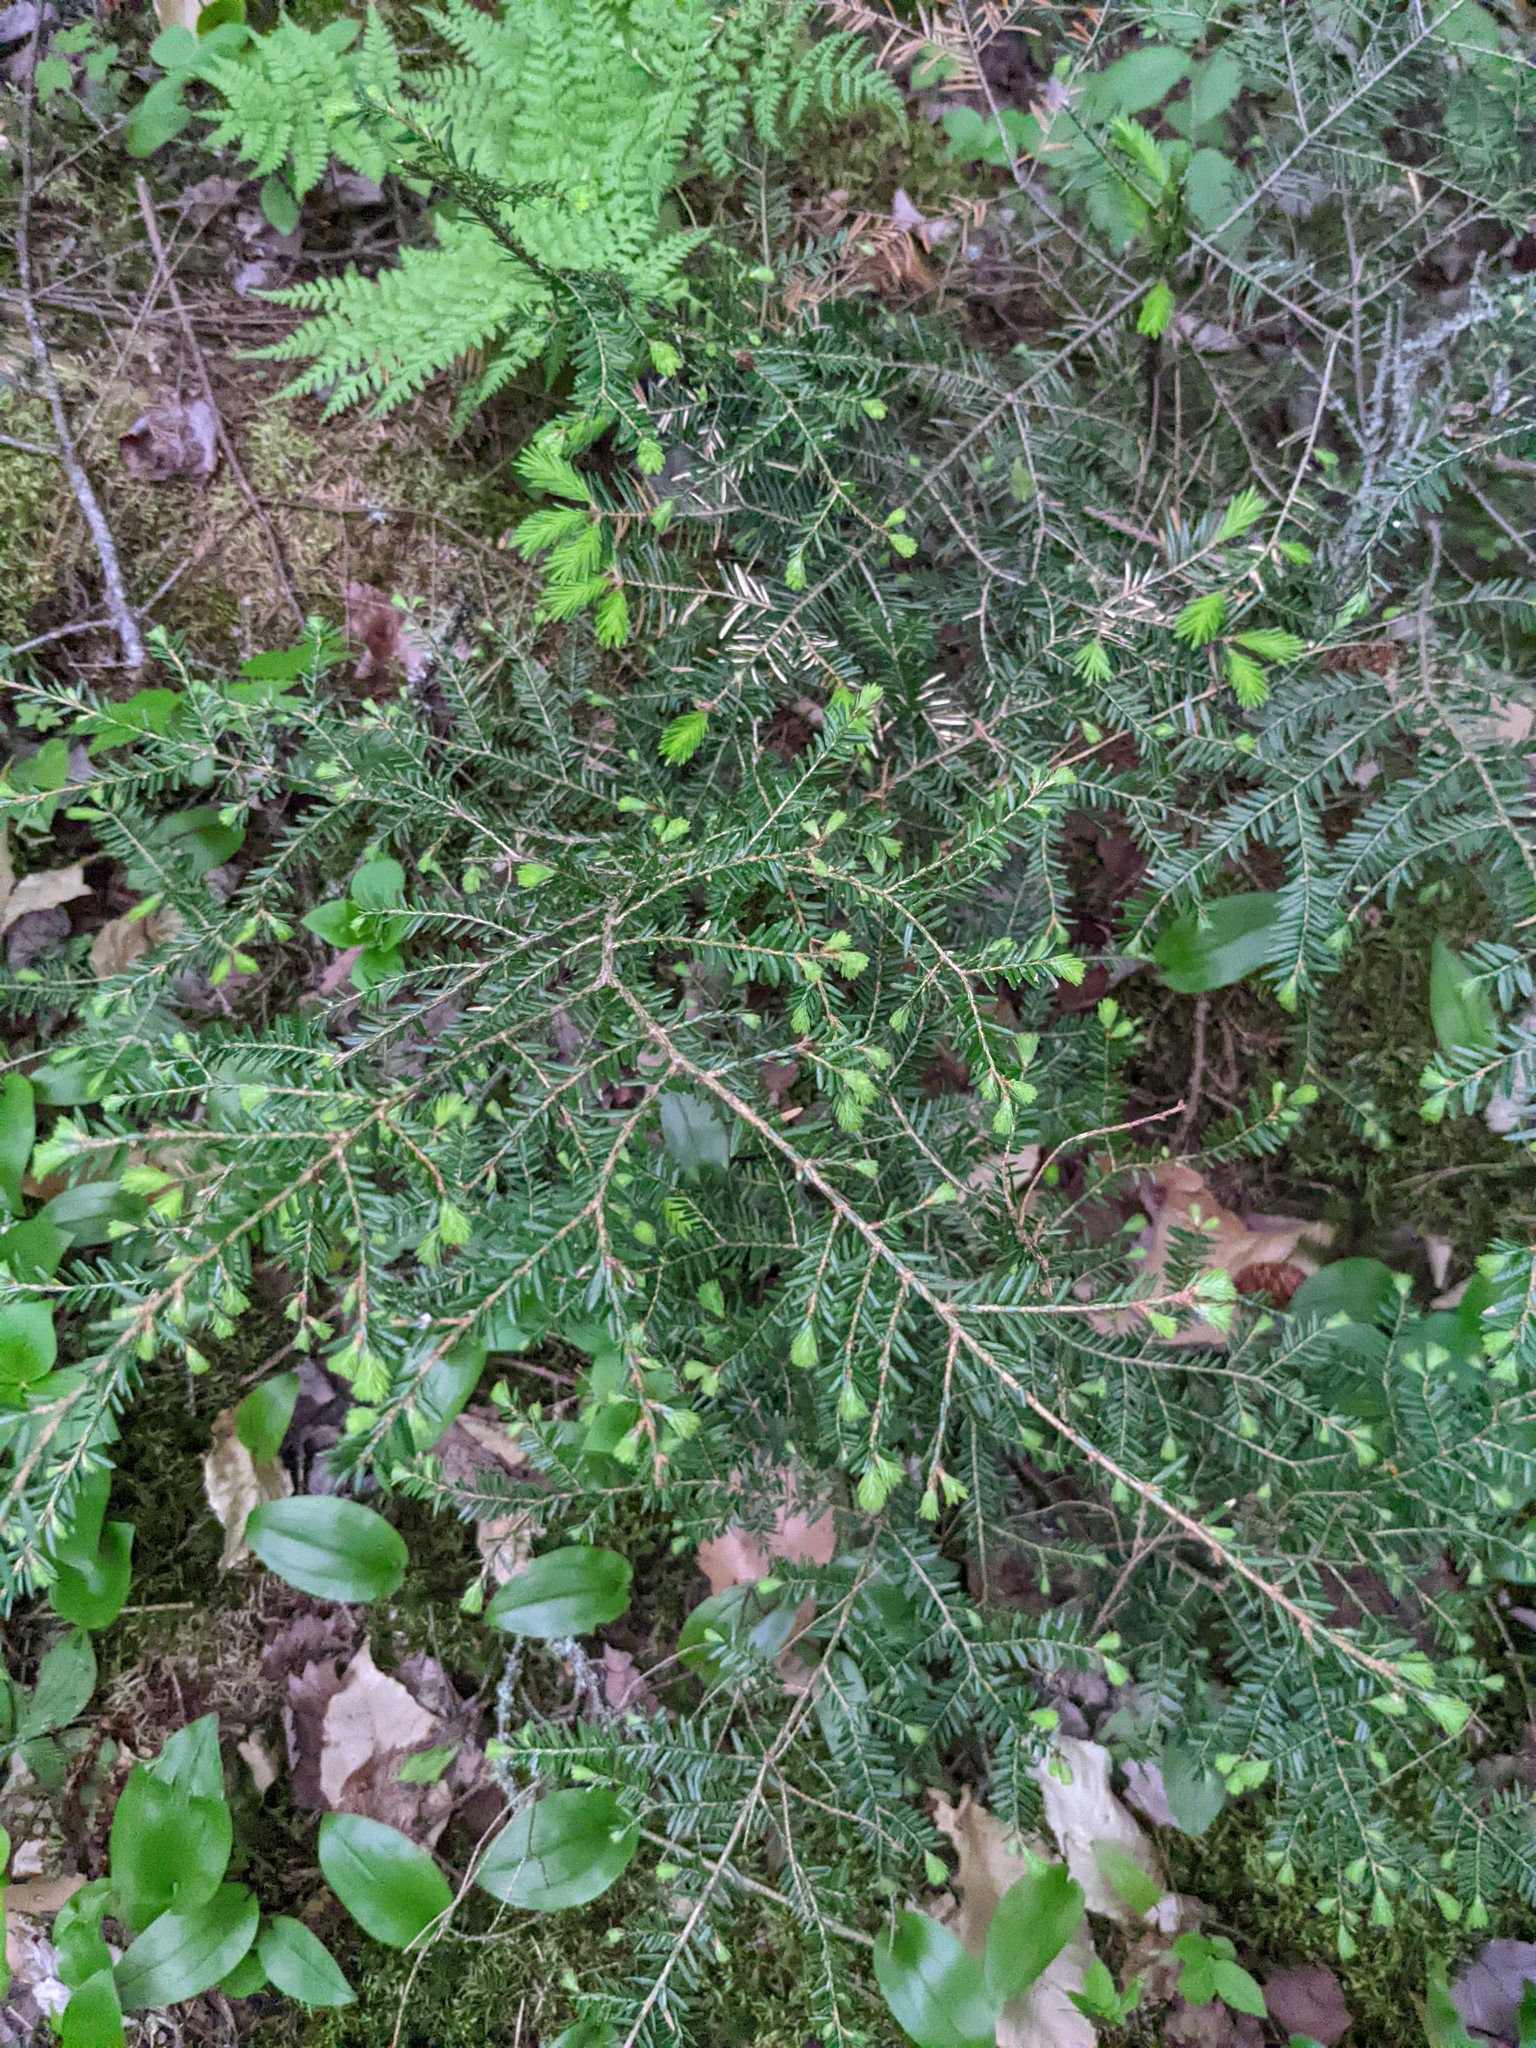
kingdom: Plantae
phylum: Tracheophyta
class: Pinopsida
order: Pinales
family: Pinaceae
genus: Tsuga
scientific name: Tsuga canadensis
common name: Eastern hemlock
